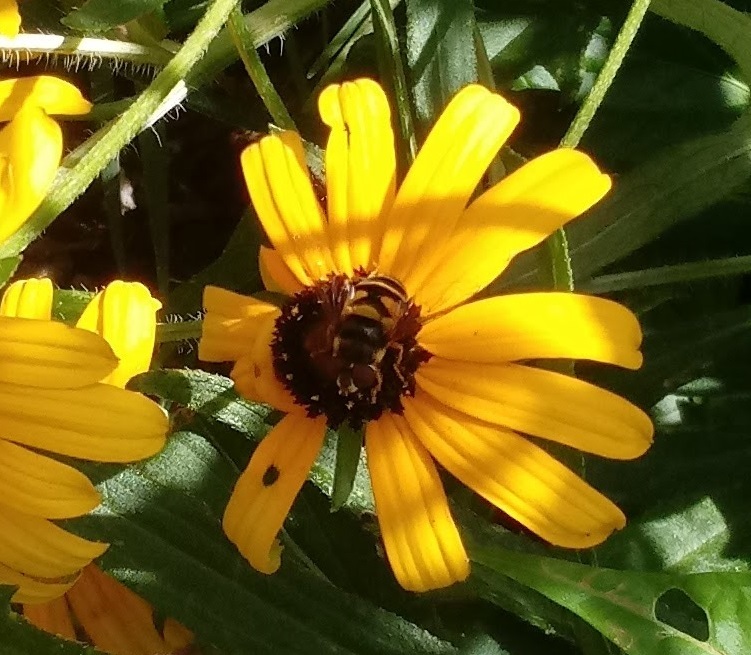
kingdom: Animalia
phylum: Arthropoda
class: Insecta
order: Diptera
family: Syrphidae
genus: Eristalis
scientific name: Eristalis transversa
